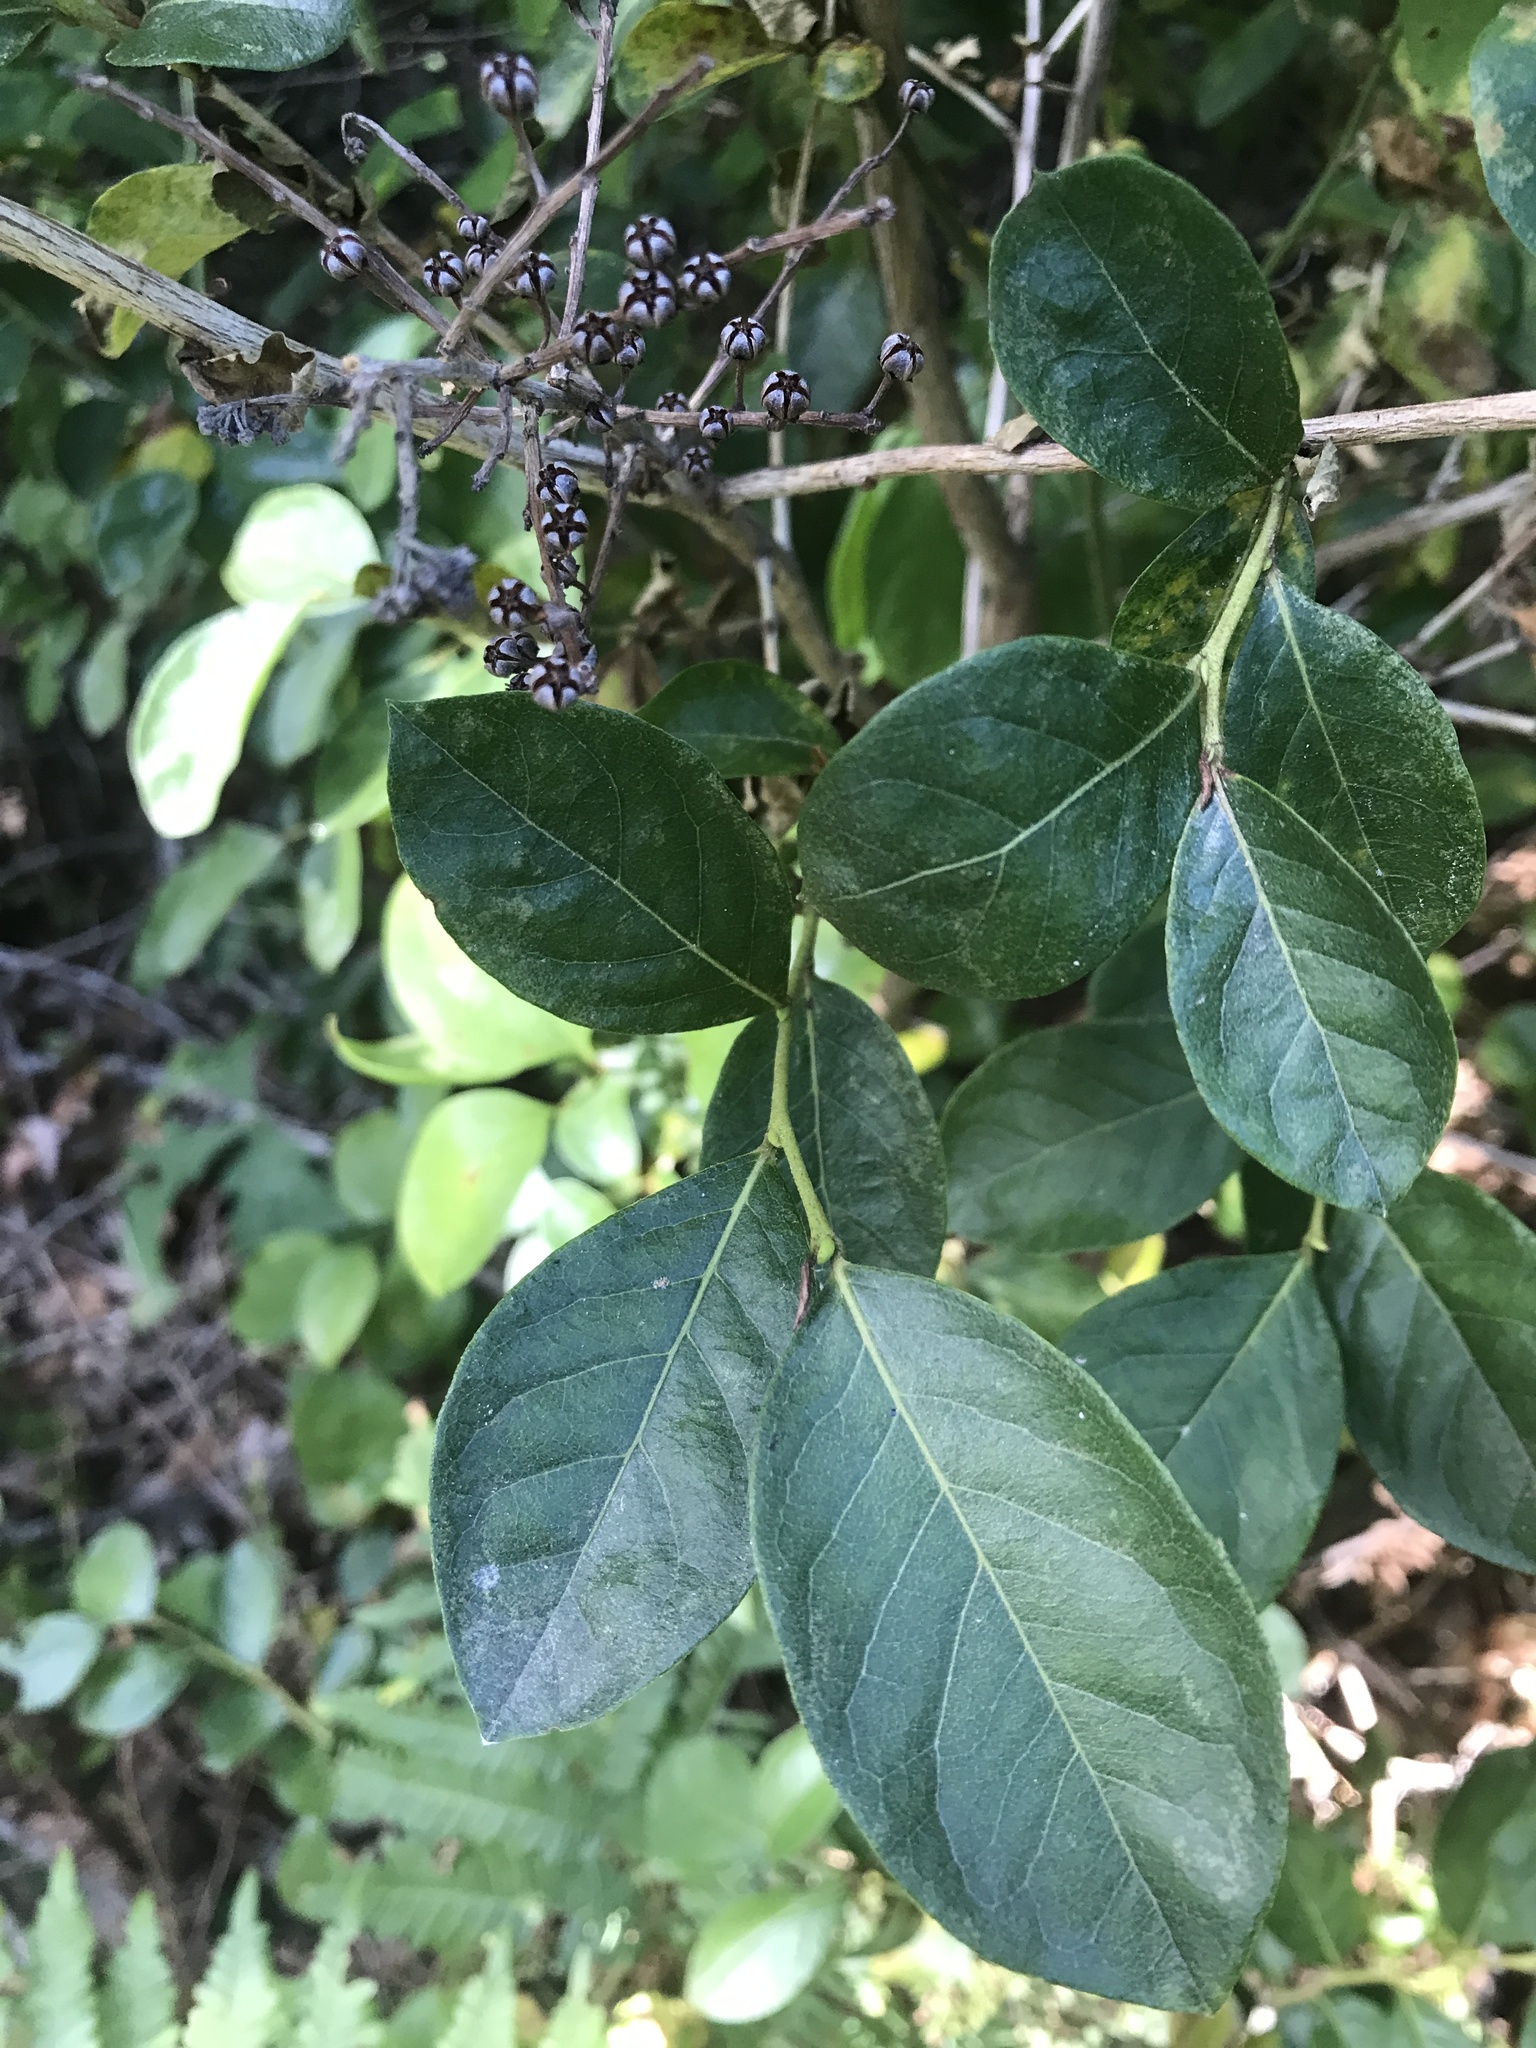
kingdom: Plantae
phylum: Tracheophyta
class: Magnoliopsida
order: Ericales
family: Ericaceae
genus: Lyonia
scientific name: Lyonia ligustrina
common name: Maleberry
